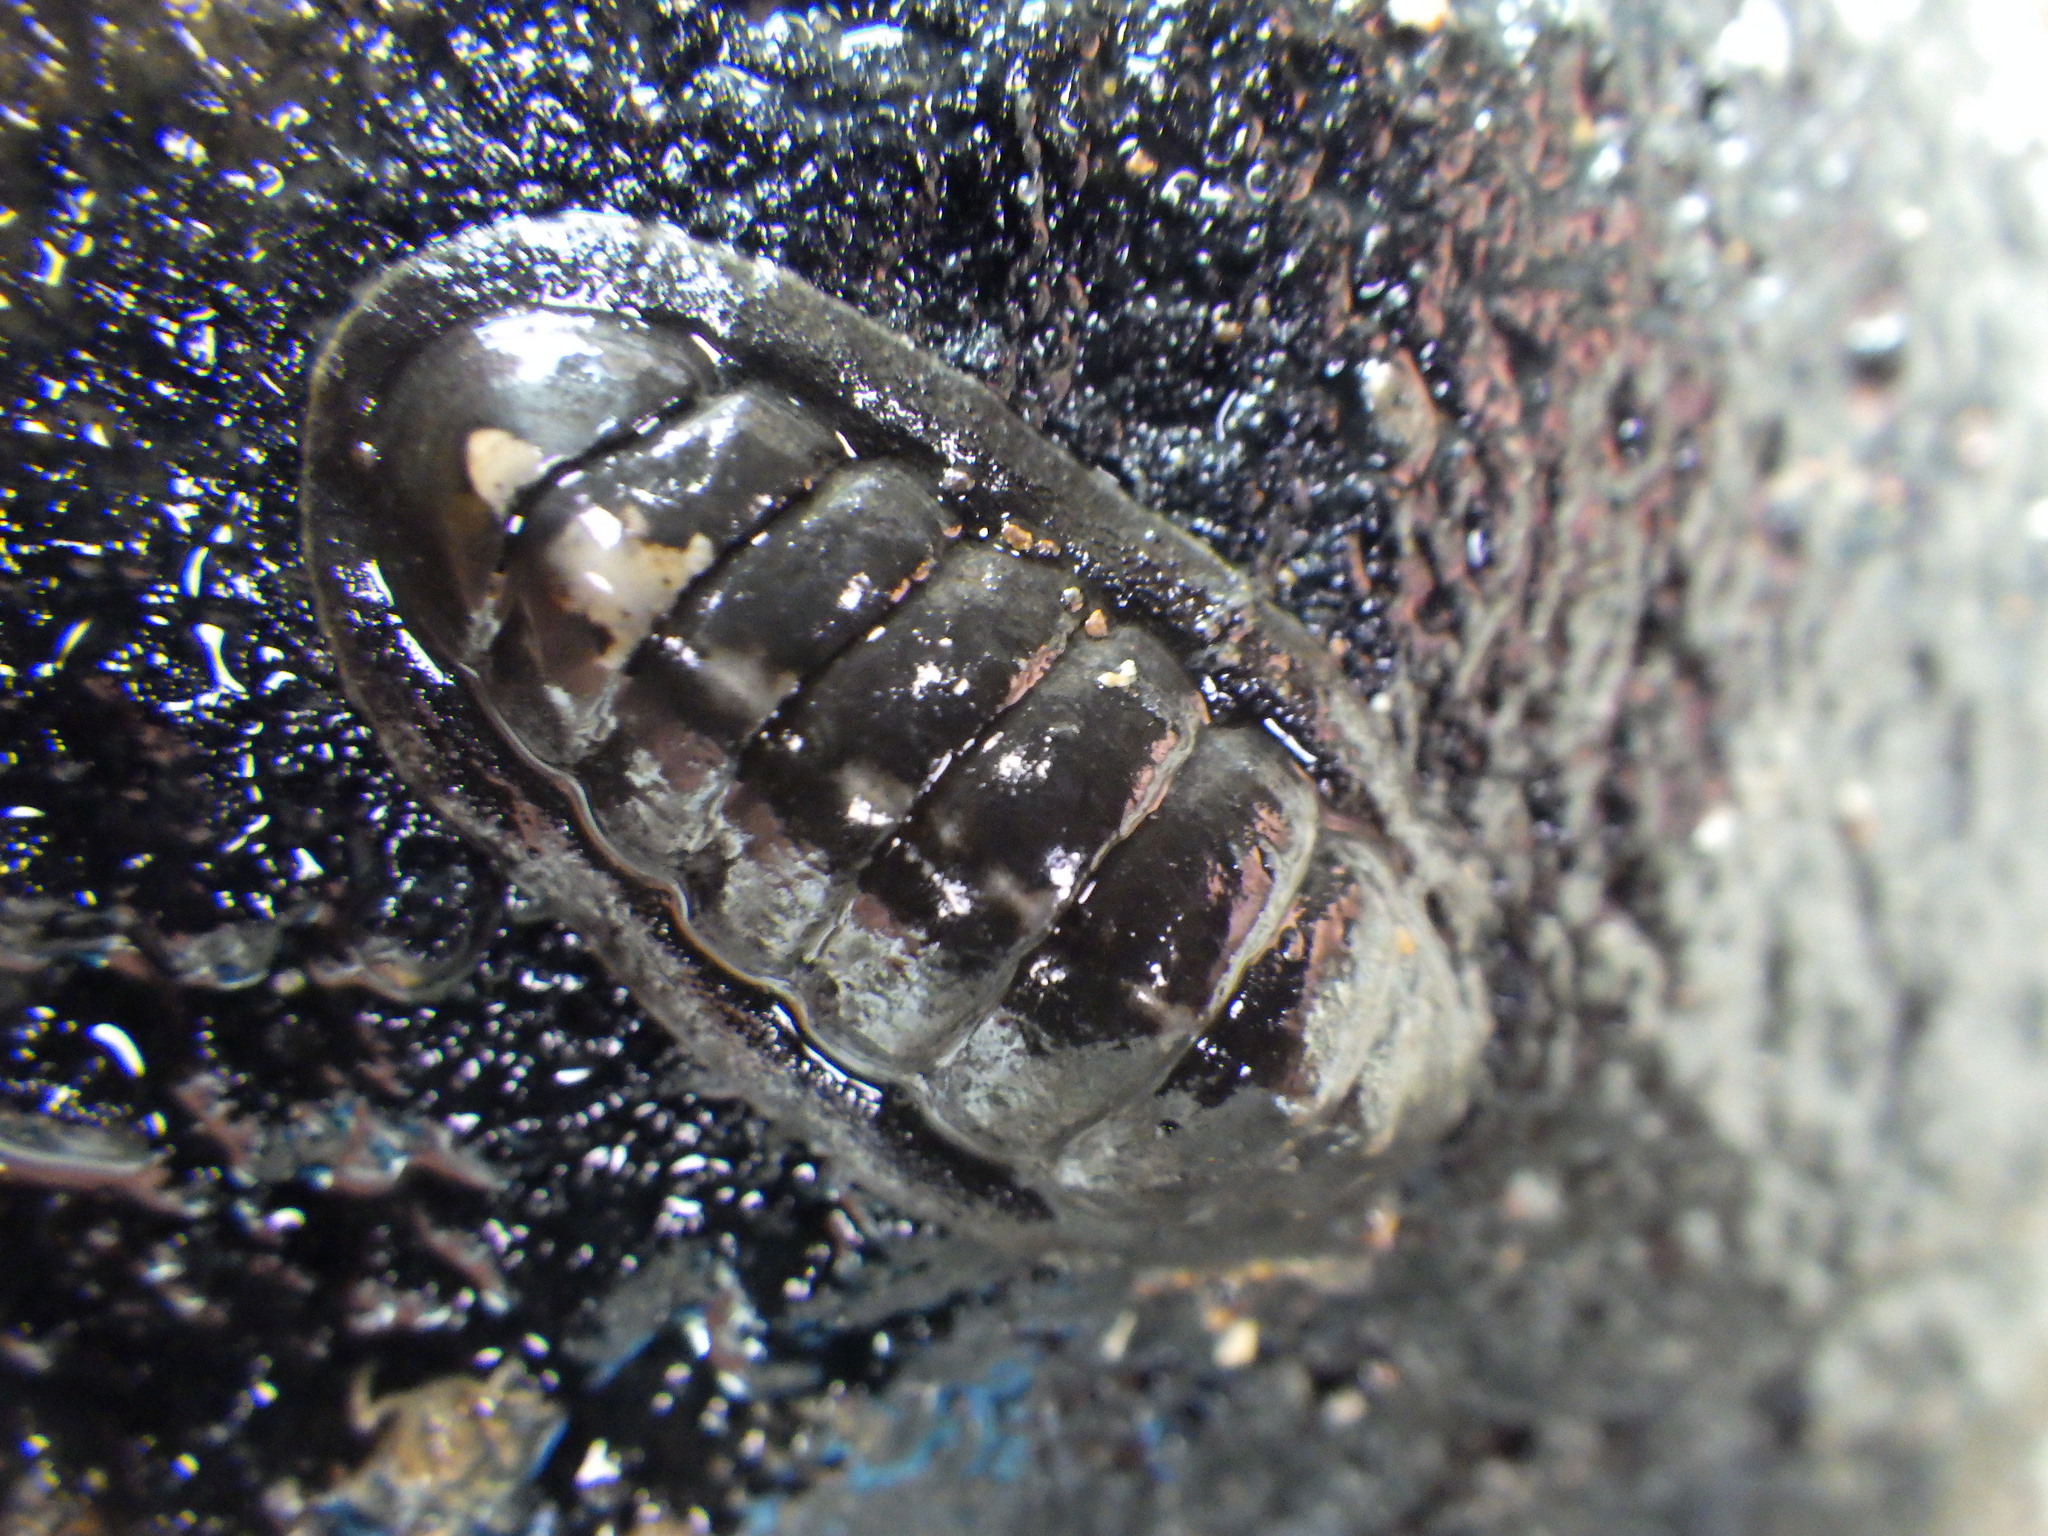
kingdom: Animalia
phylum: Mollusca
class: Polyplacophora
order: Chitonida
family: Ischnochitonidae
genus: Ischnochiton
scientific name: Ischnochiton maorianus
